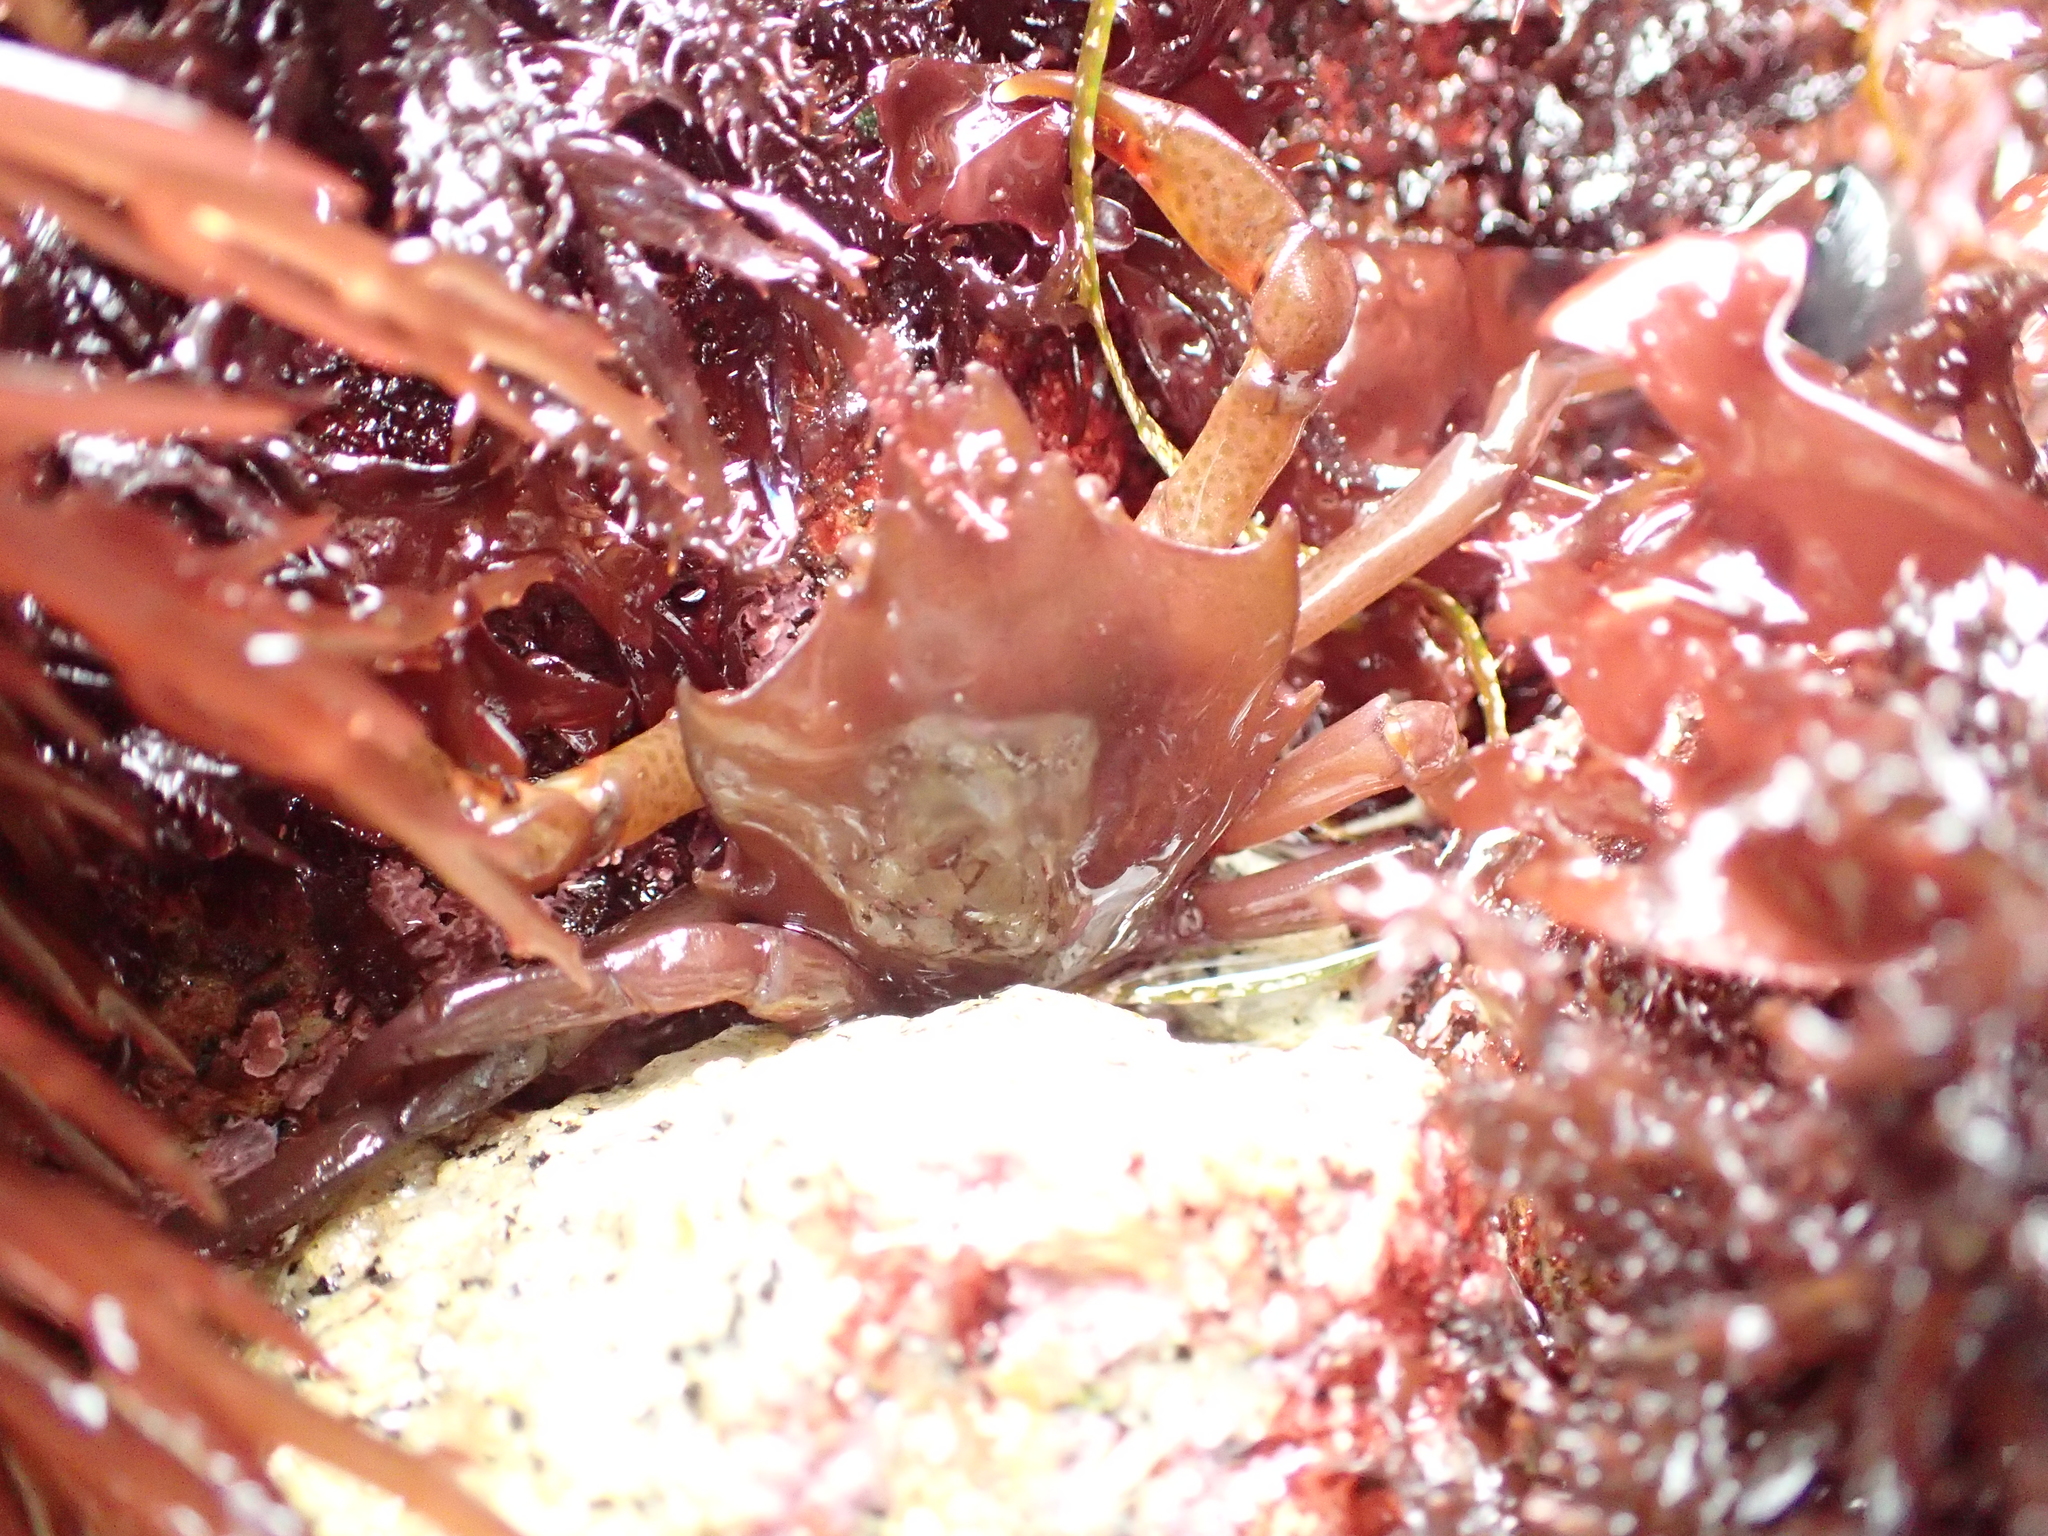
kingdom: Animalia
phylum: Arthropoda
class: Malacostraca
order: Decapoda
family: Epialtidae
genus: Pugettia
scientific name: Pugettia producta
